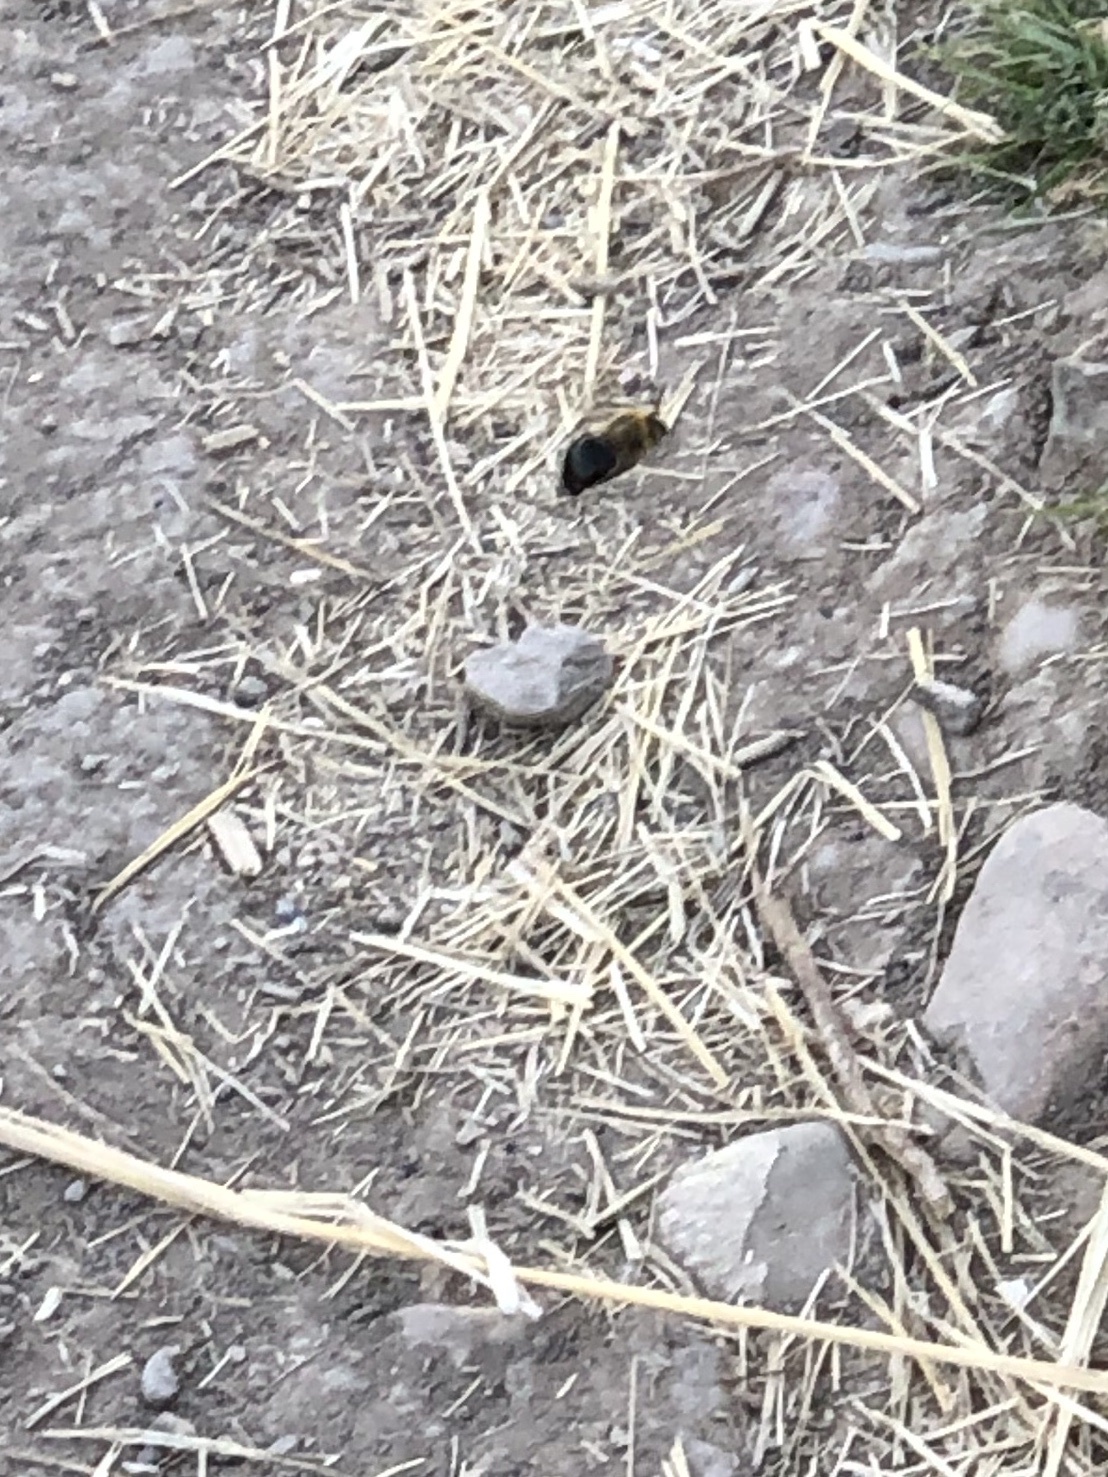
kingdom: Animalia
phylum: Arthropoda
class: Insecta
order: Hymenoptera
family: Apidae
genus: Xylocopa
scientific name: Xylocopa tabaniformis
